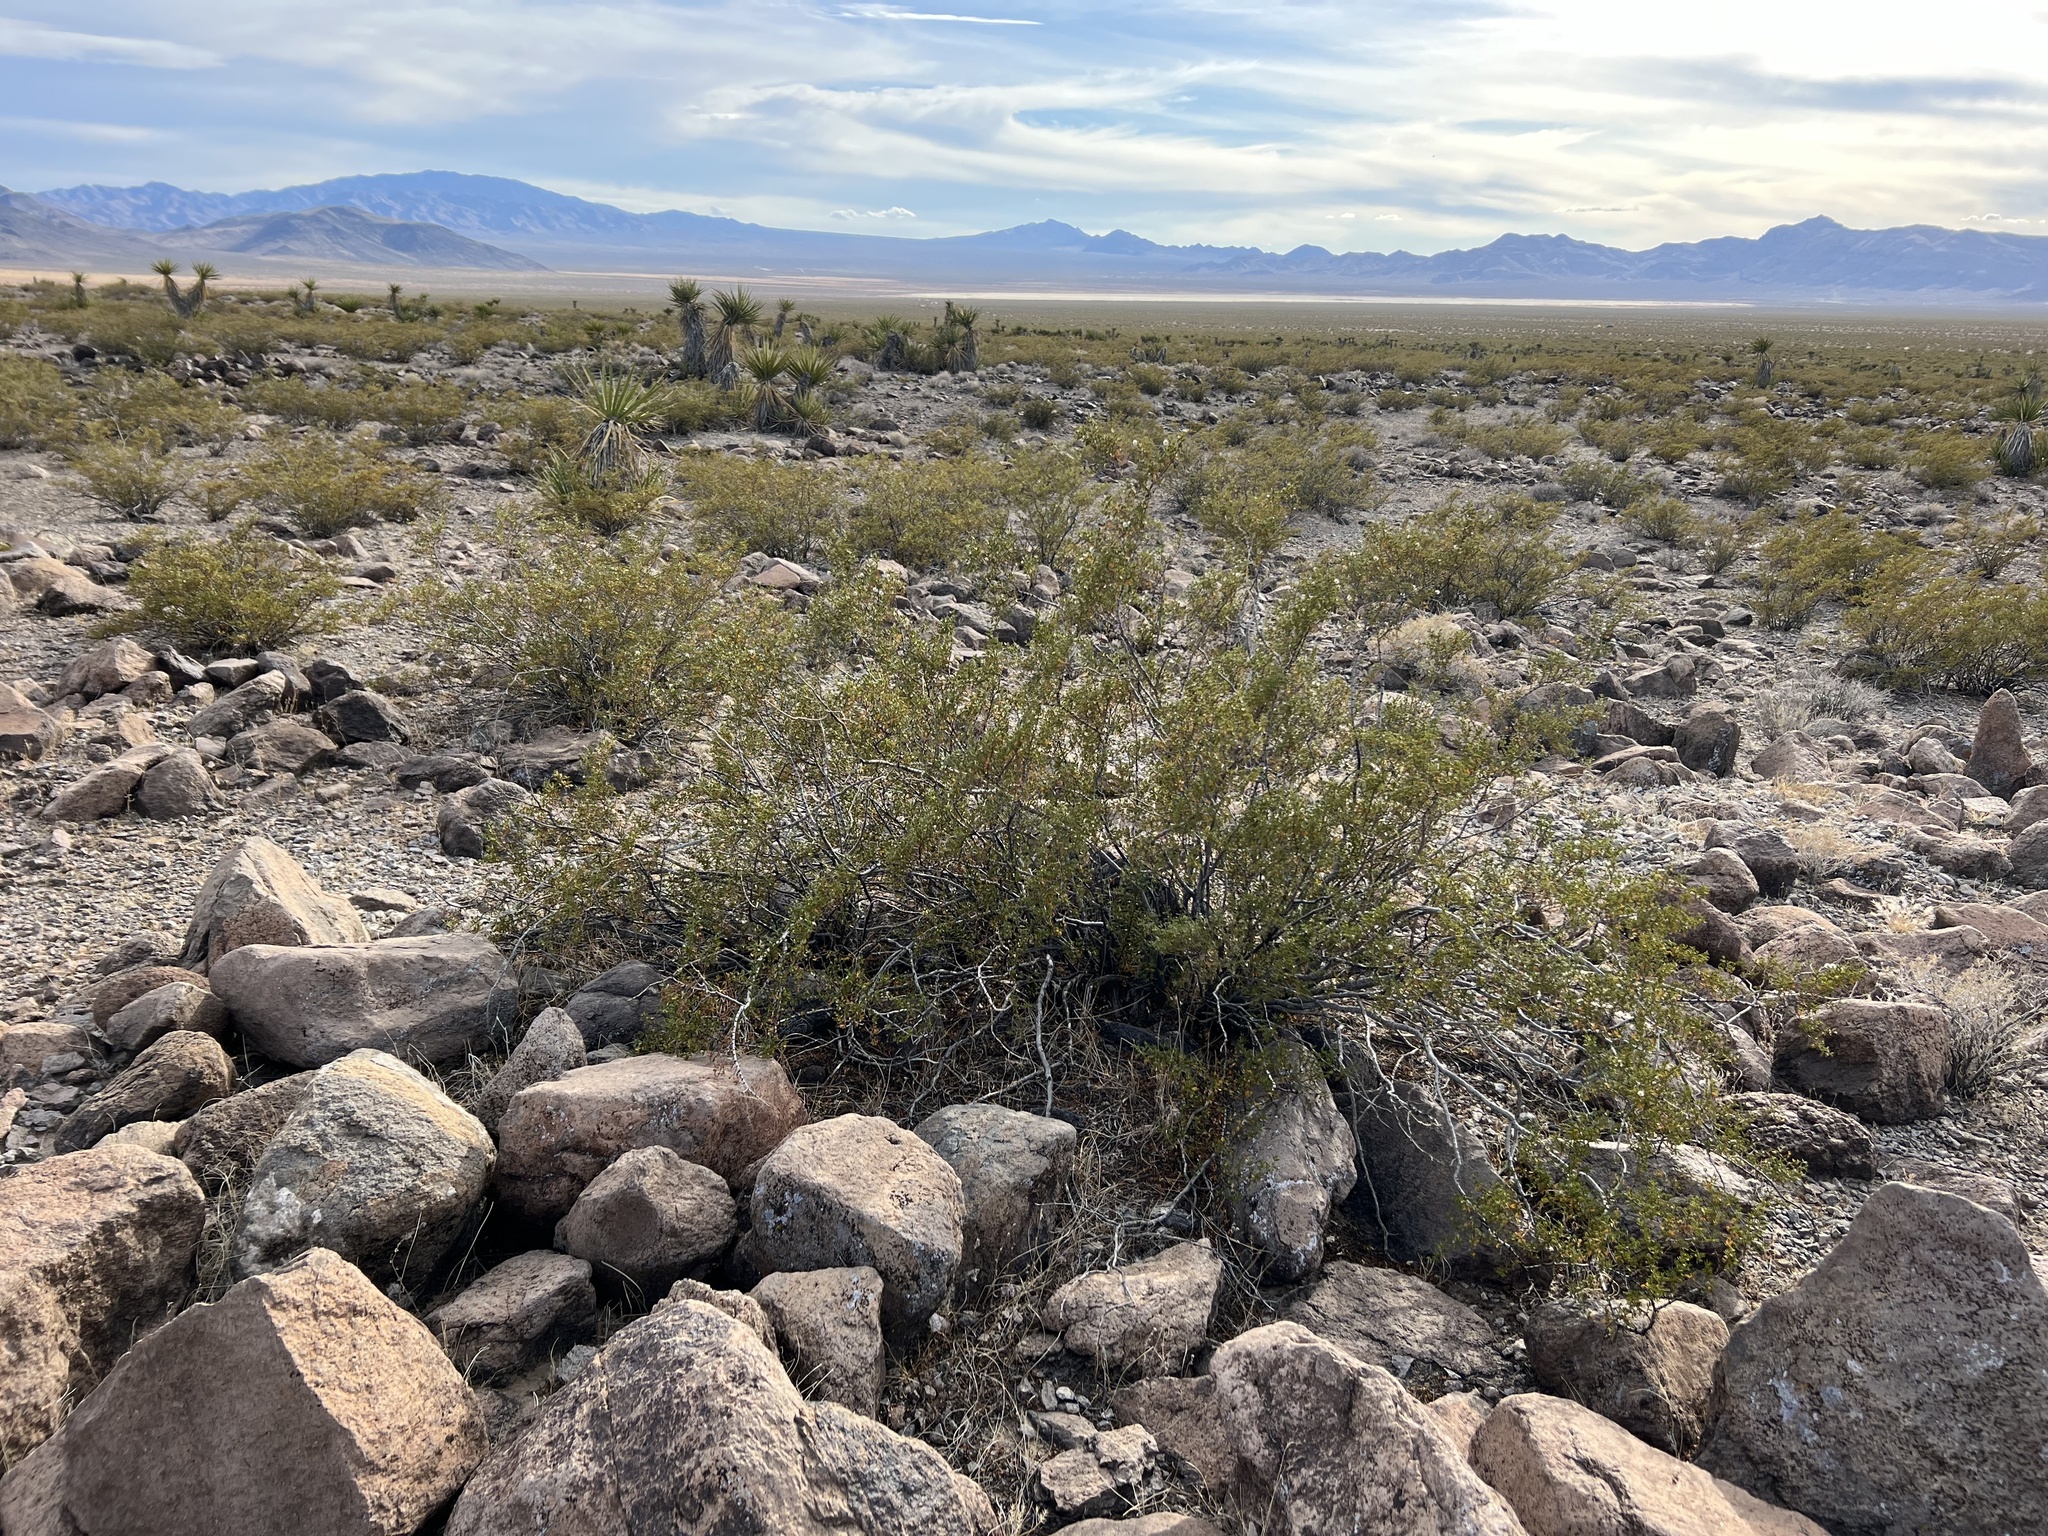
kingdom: Plantae
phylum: Tracheophyta
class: Magnoliopsida
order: Zygophyllales
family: Zygophyllaceae
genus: Larrea
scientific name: Larrea tridentata
